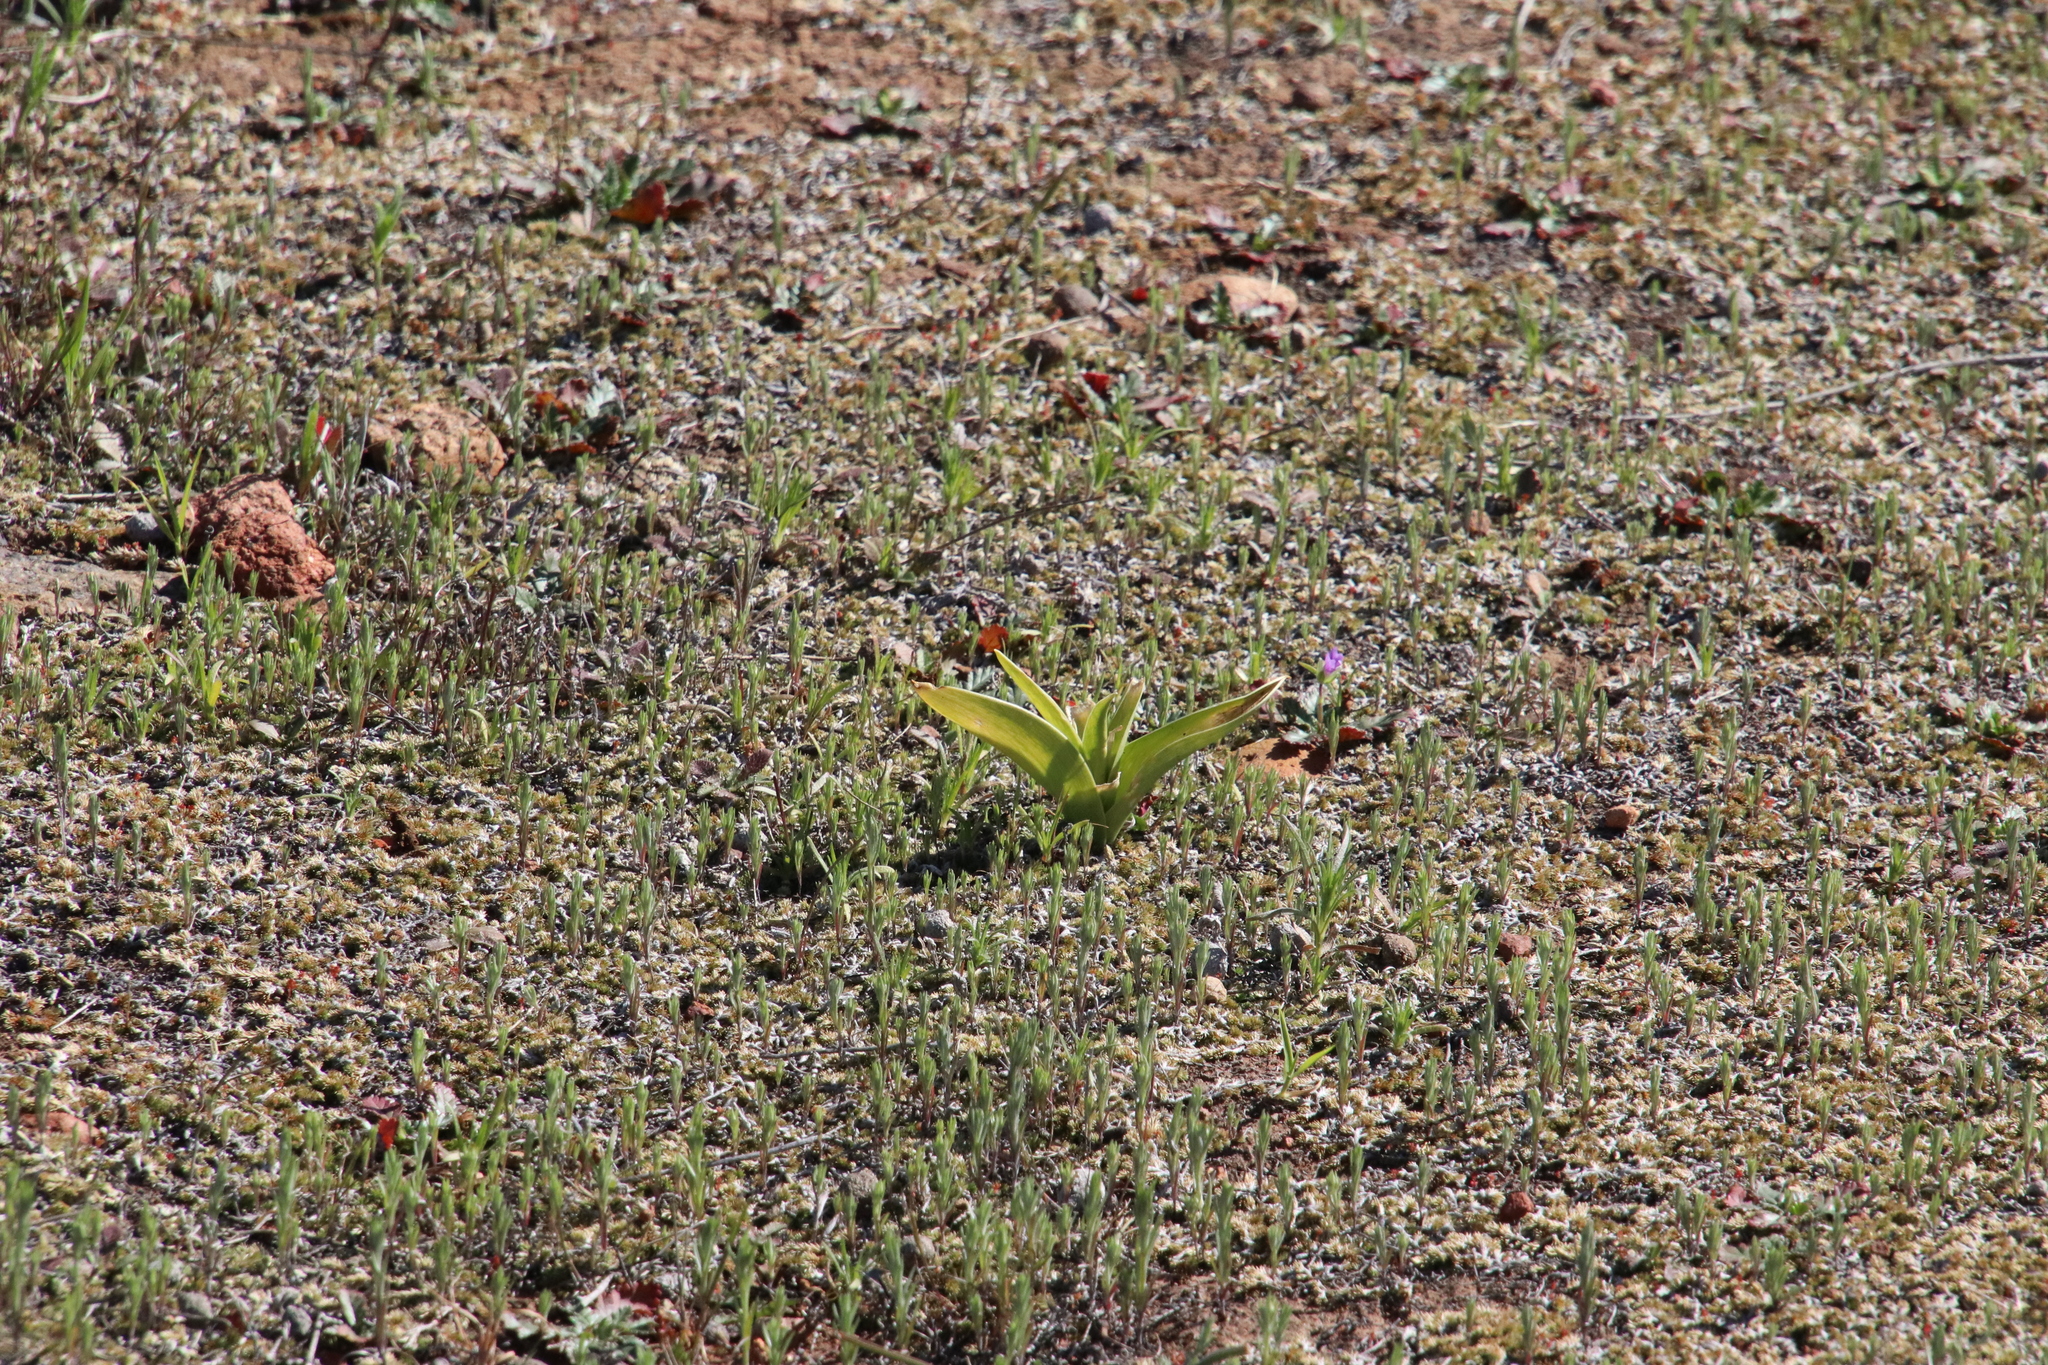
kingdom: Plantae
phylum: Tracheophyta
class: Liliopsida
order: Liliales
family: Liliaceae
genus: Fritillaria
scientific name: Fritillaria biflora
